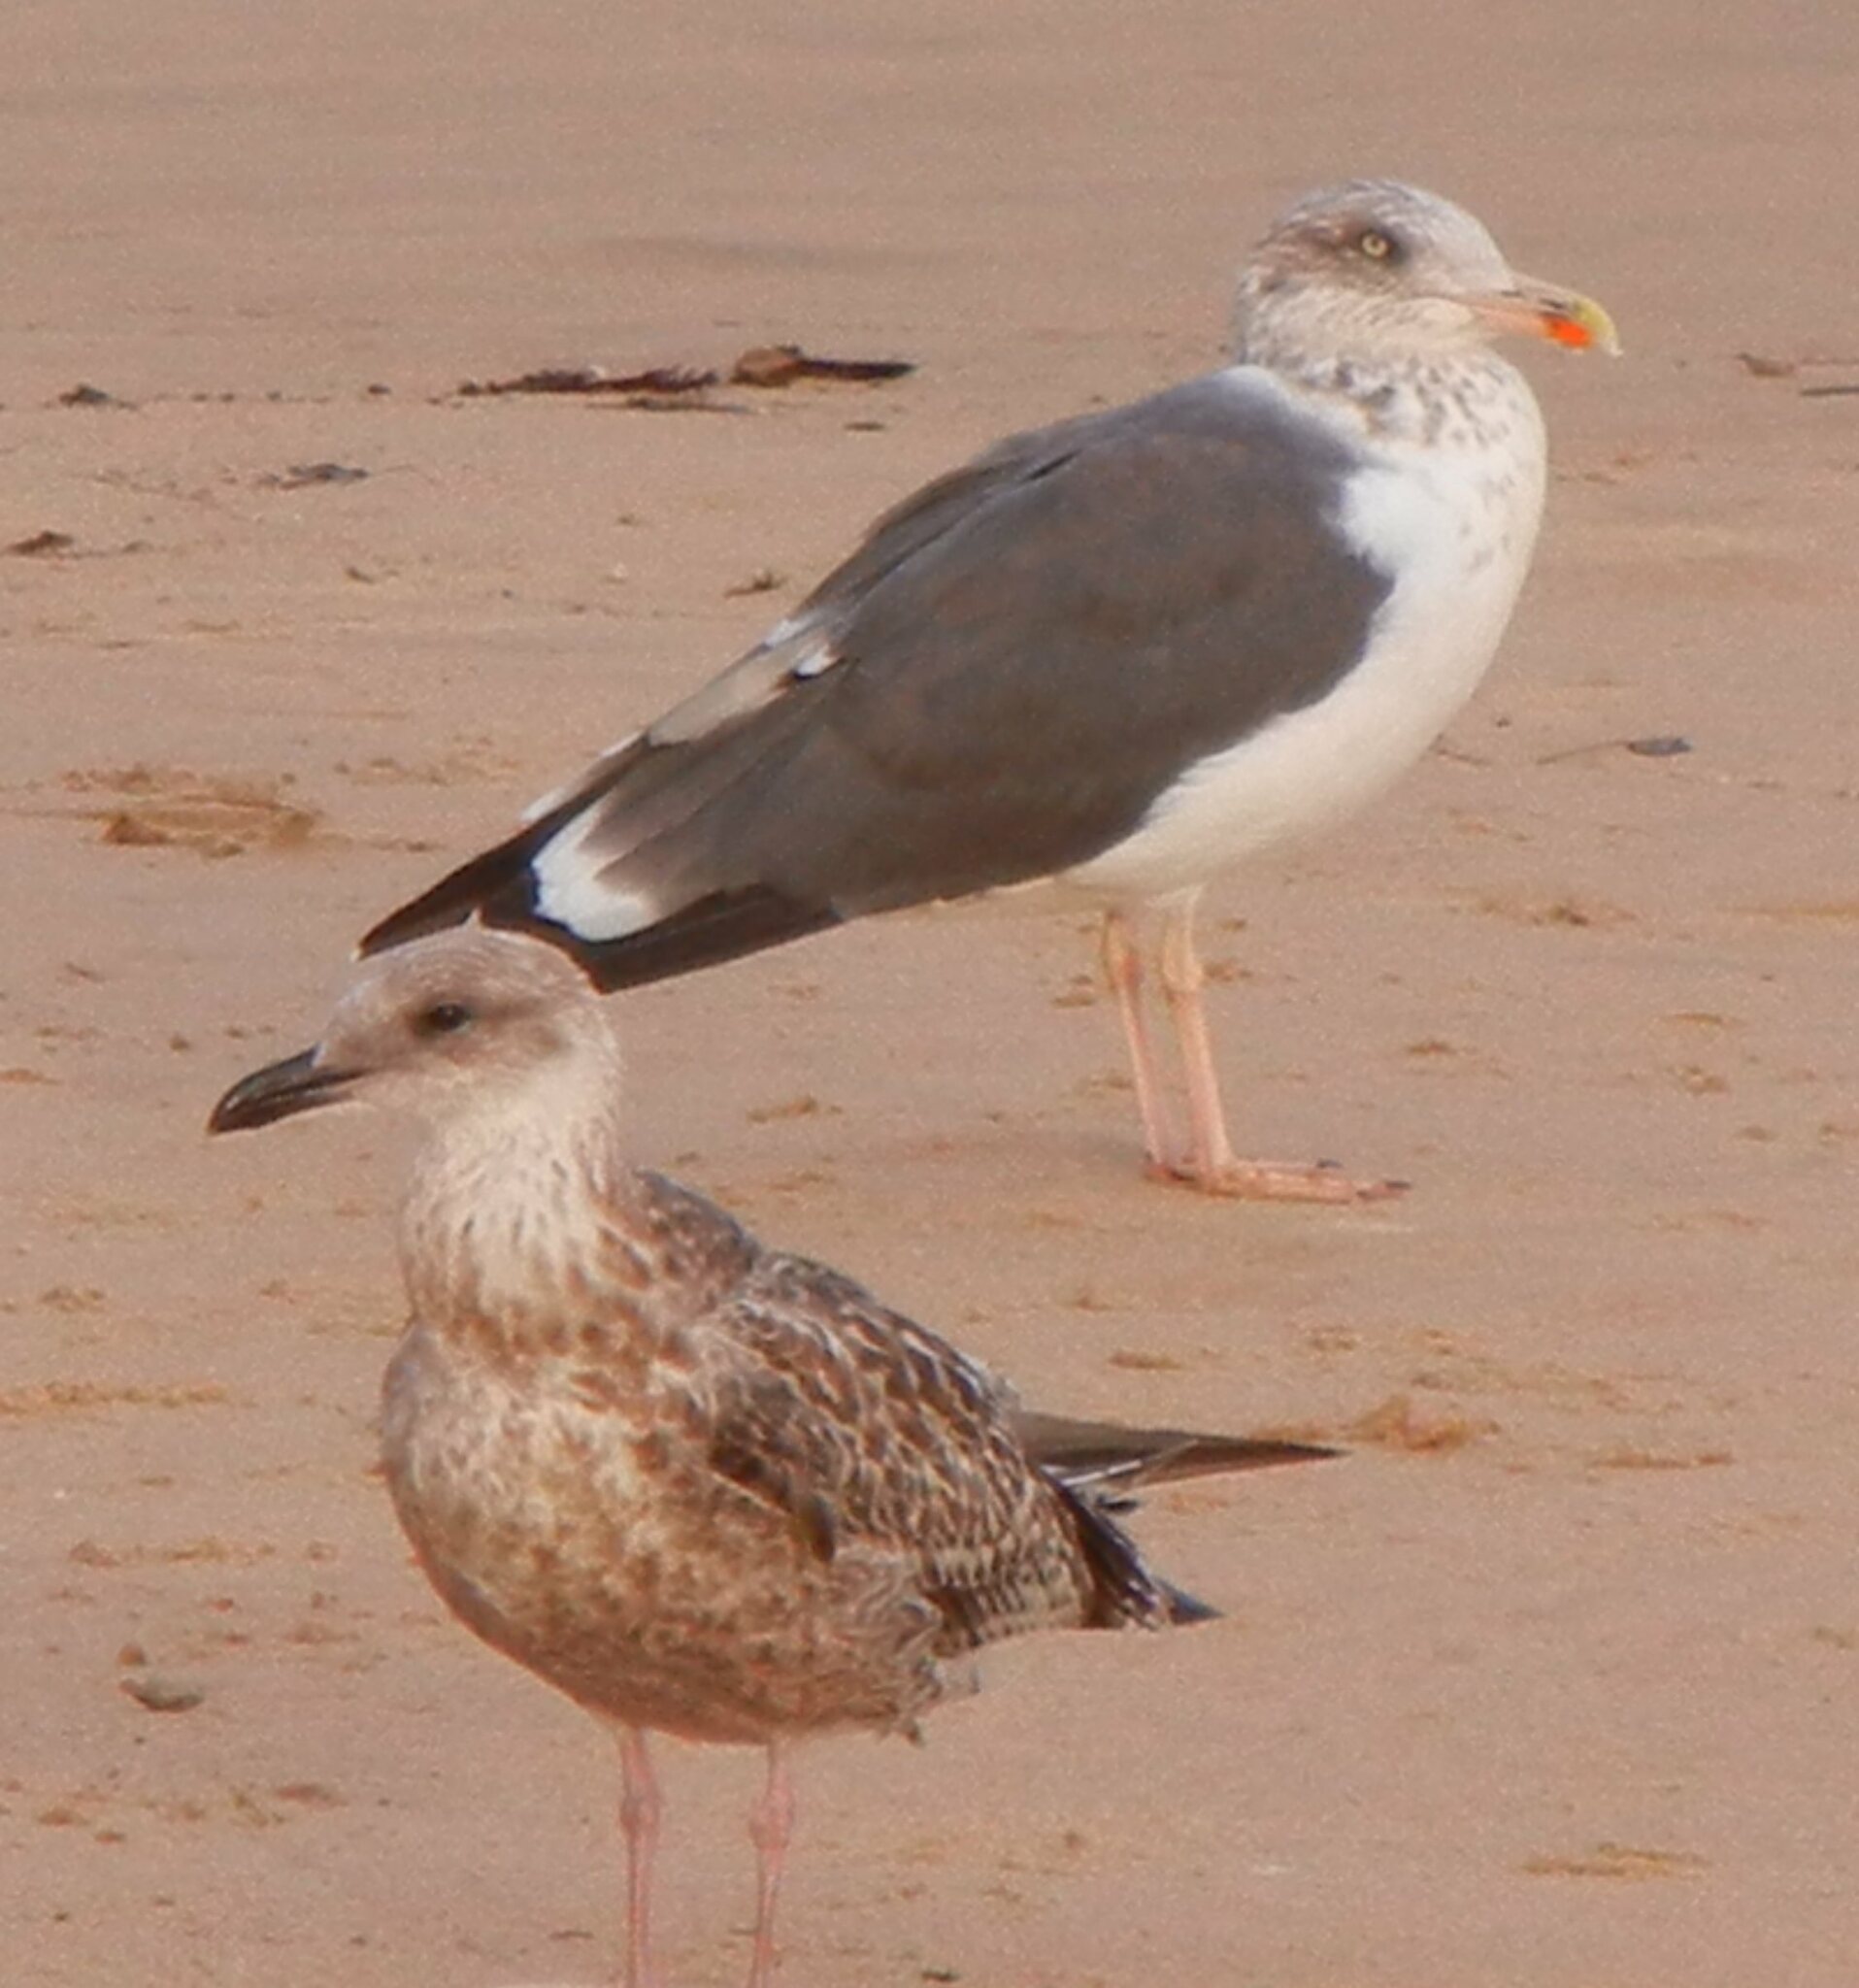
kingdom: Animalia
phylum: Chordata
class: Aves
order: Charadriiformes
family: Laridae
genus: Larus
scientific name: Larus fuscus
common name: Lesser black-backed gull
